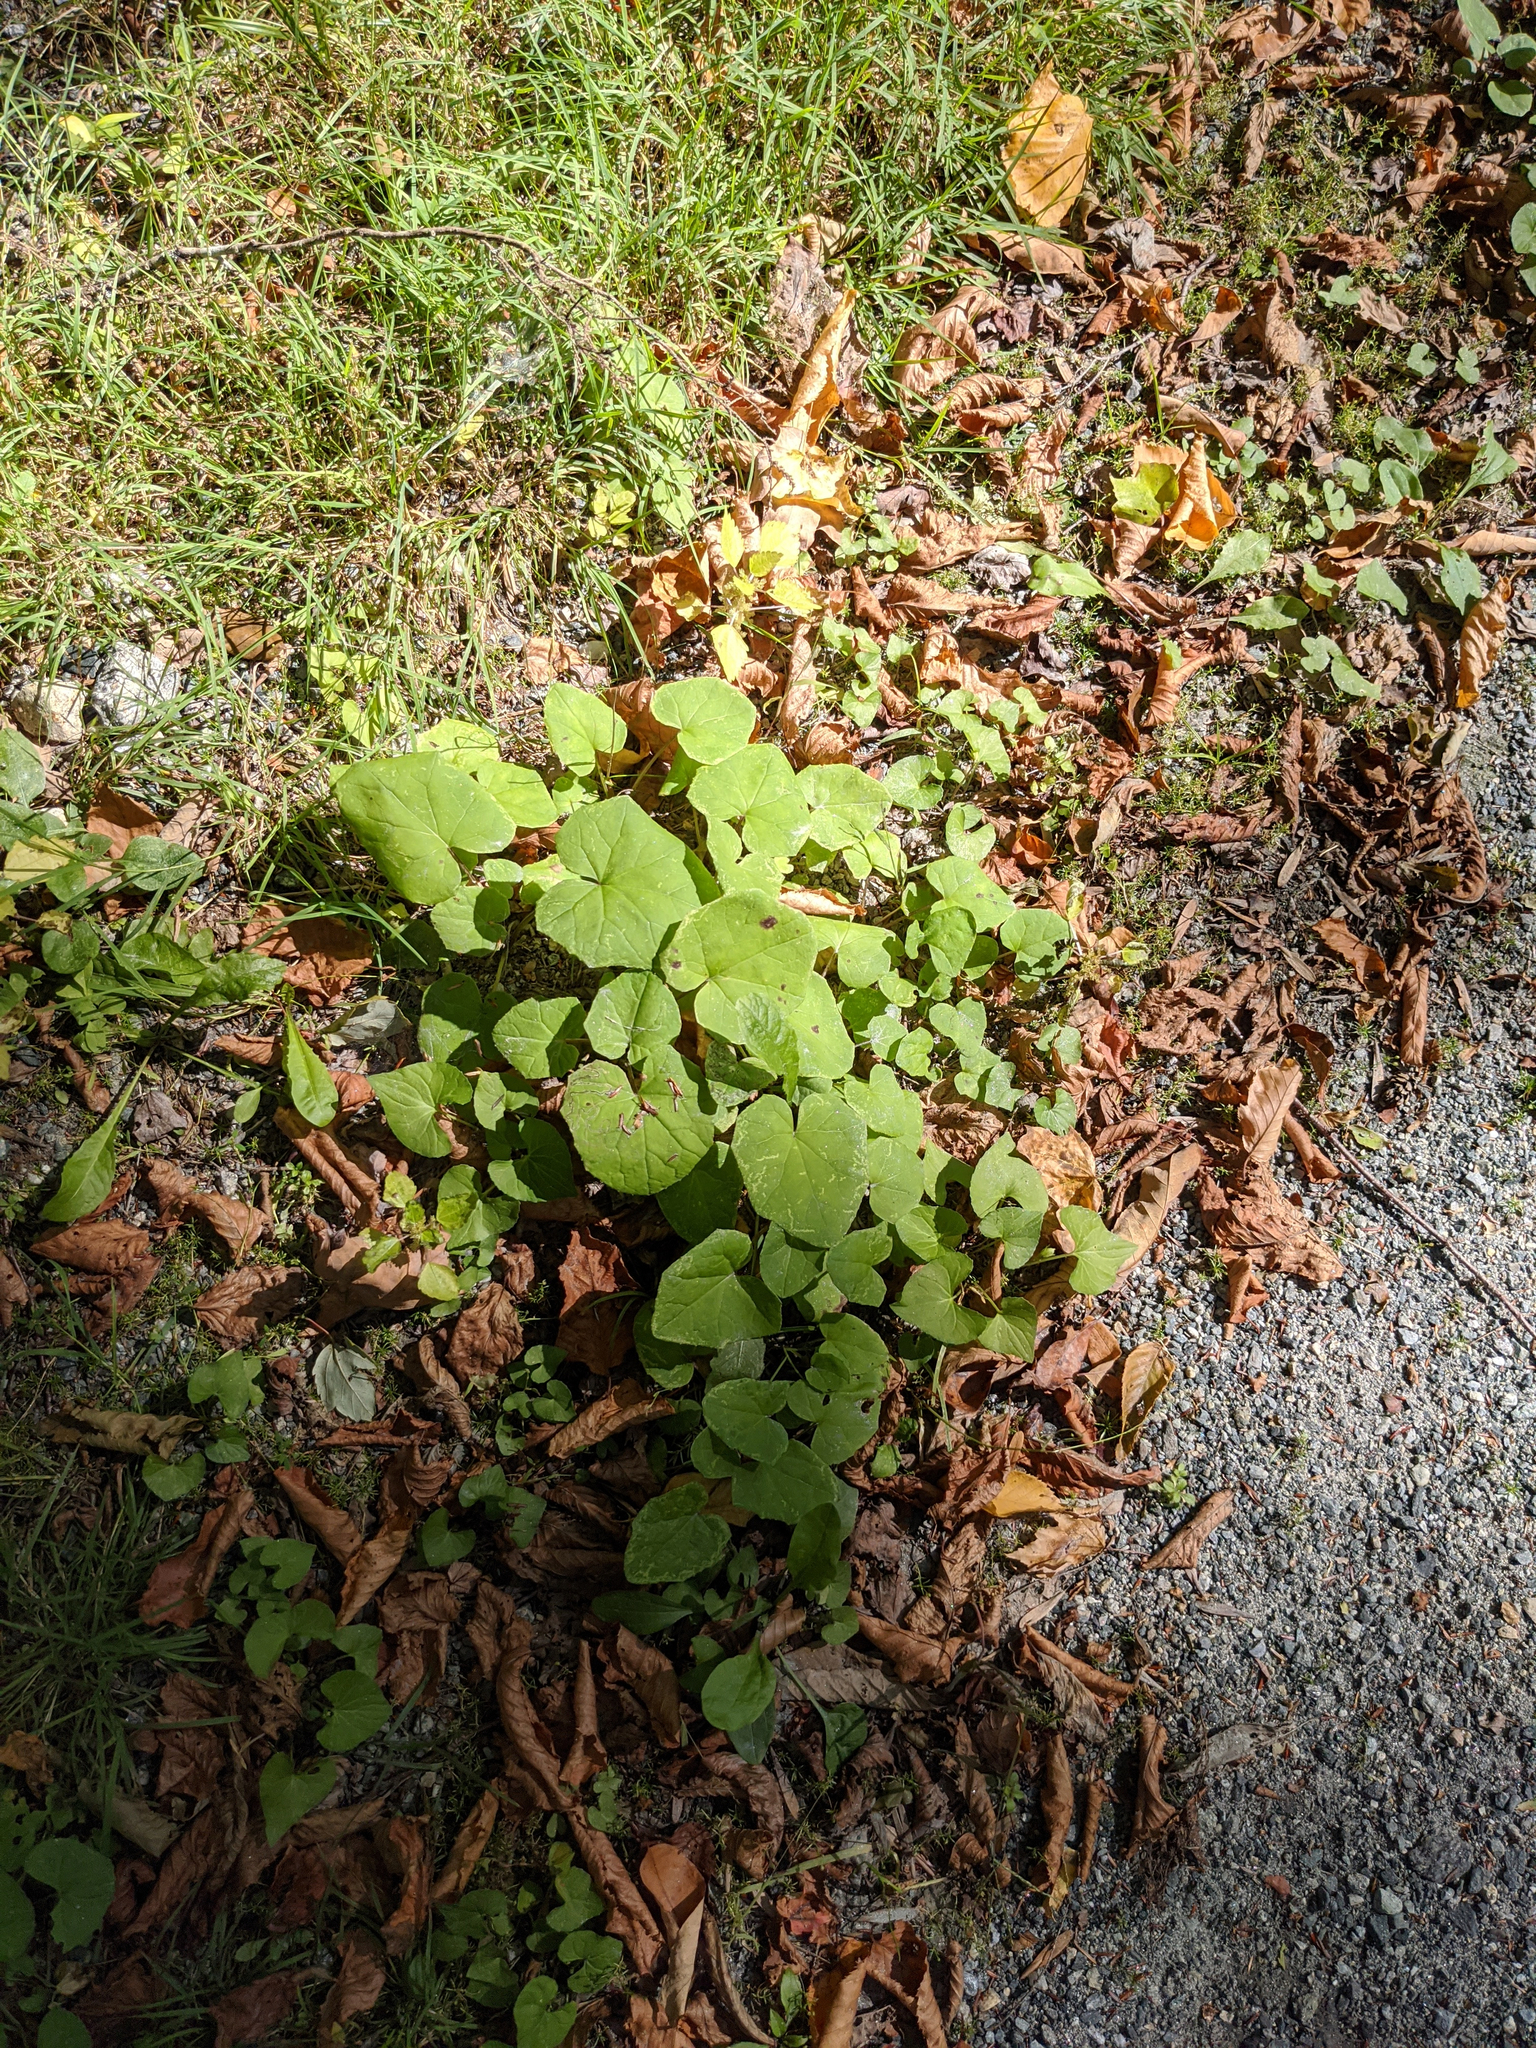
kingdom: Plantae
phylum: Tracheophyta
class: Magnoliopsida
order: Asterales
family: Asteraceae
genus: Tussilago
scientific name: Tussilago farfara
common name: Coltsfoot
